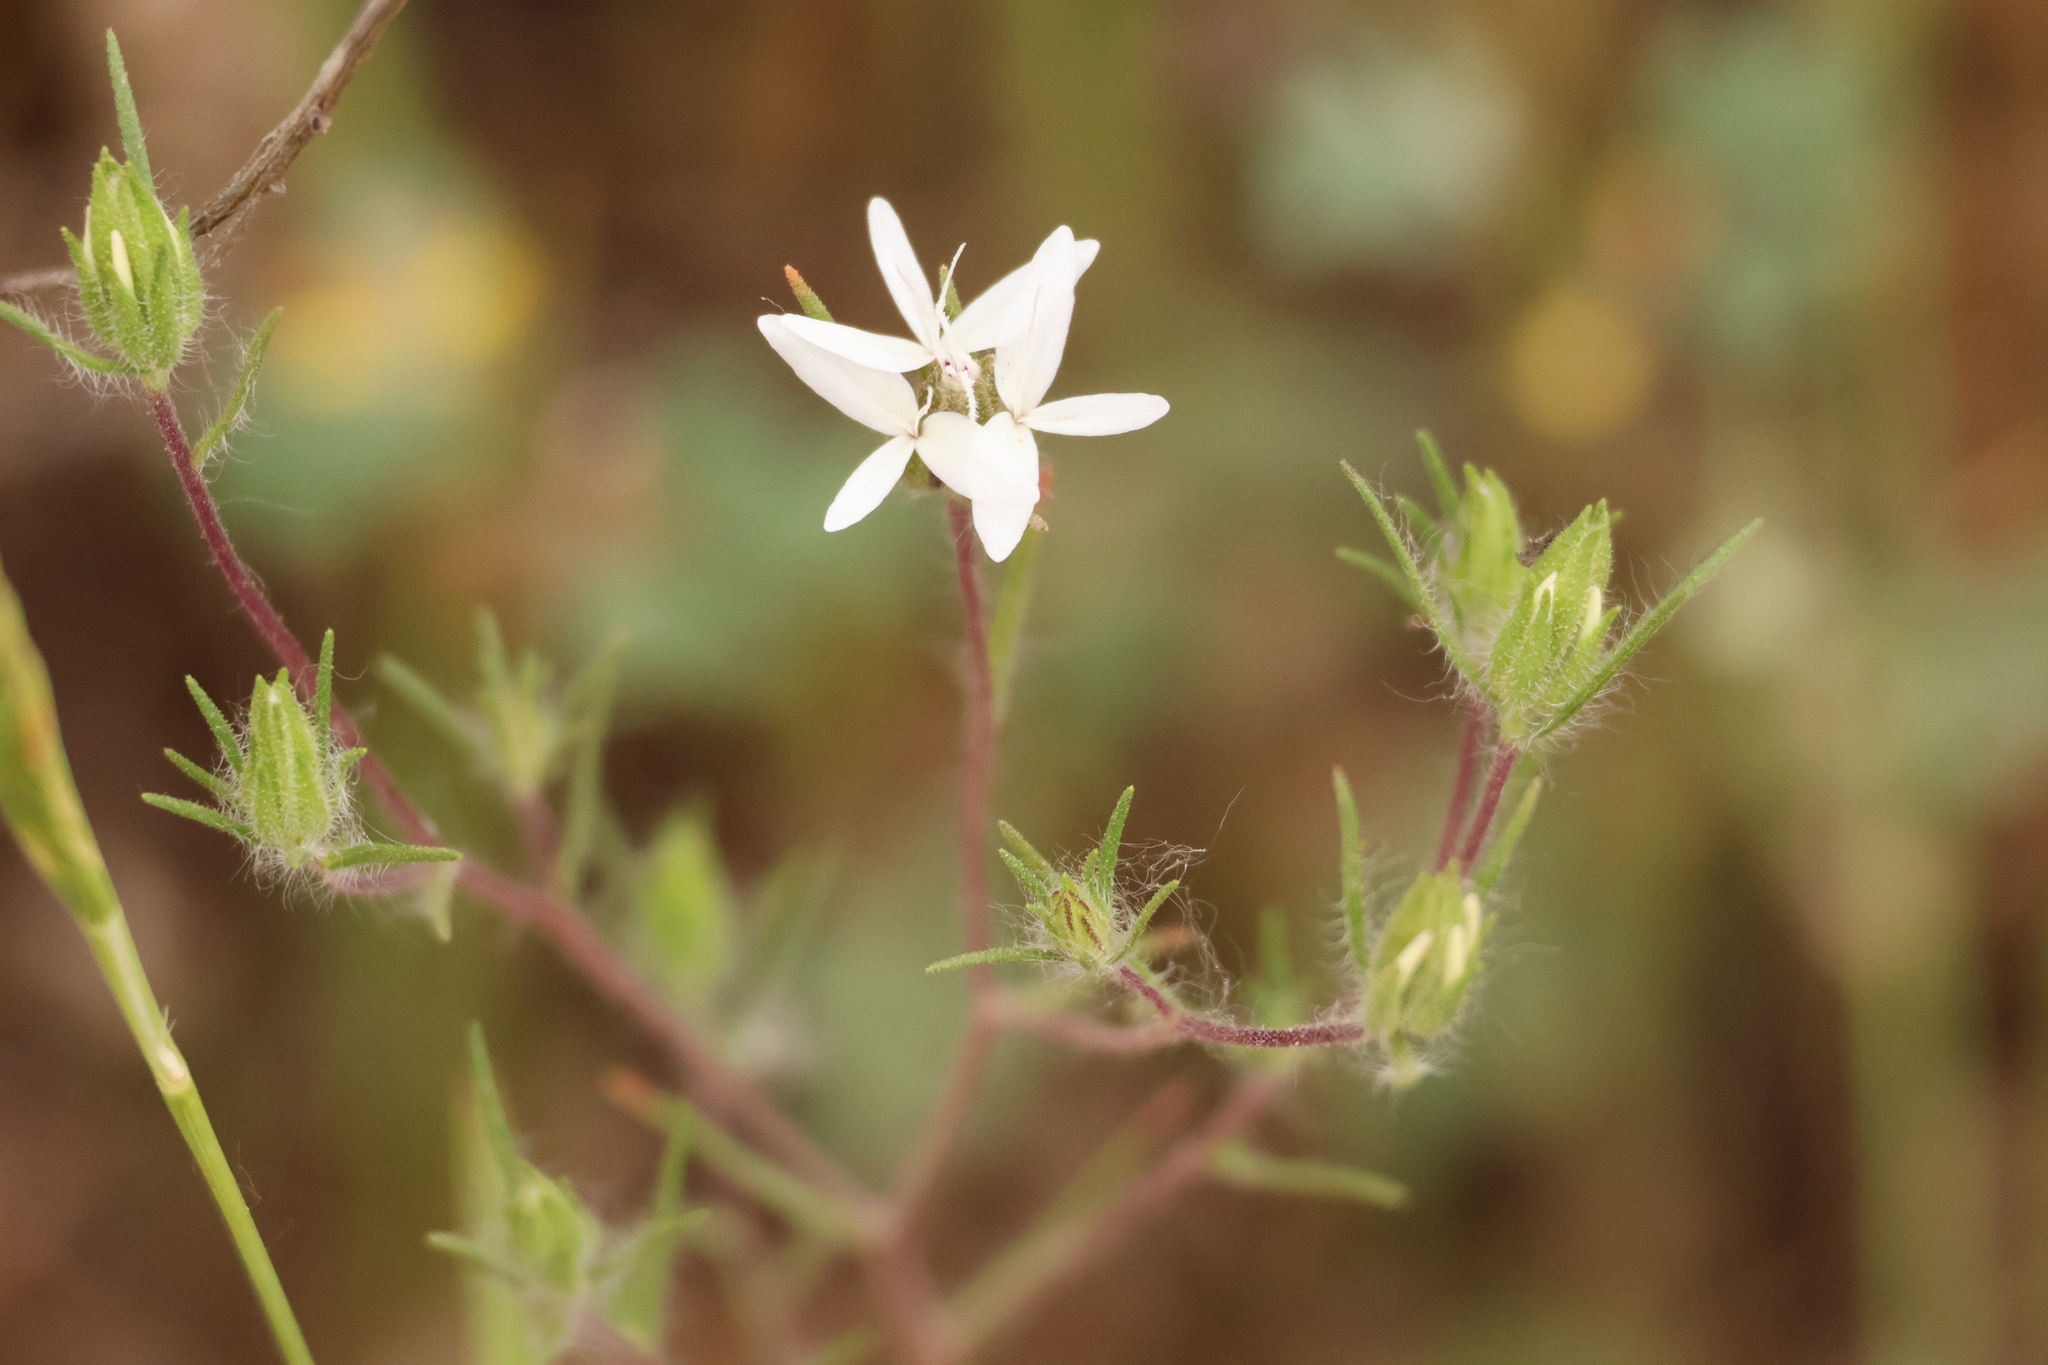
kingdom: Plantae
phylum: Tracheophyta
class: Magnoliopsida
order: Asterales
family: Asteraceae
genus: Osmadenia
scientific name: Osmadenia tenella
